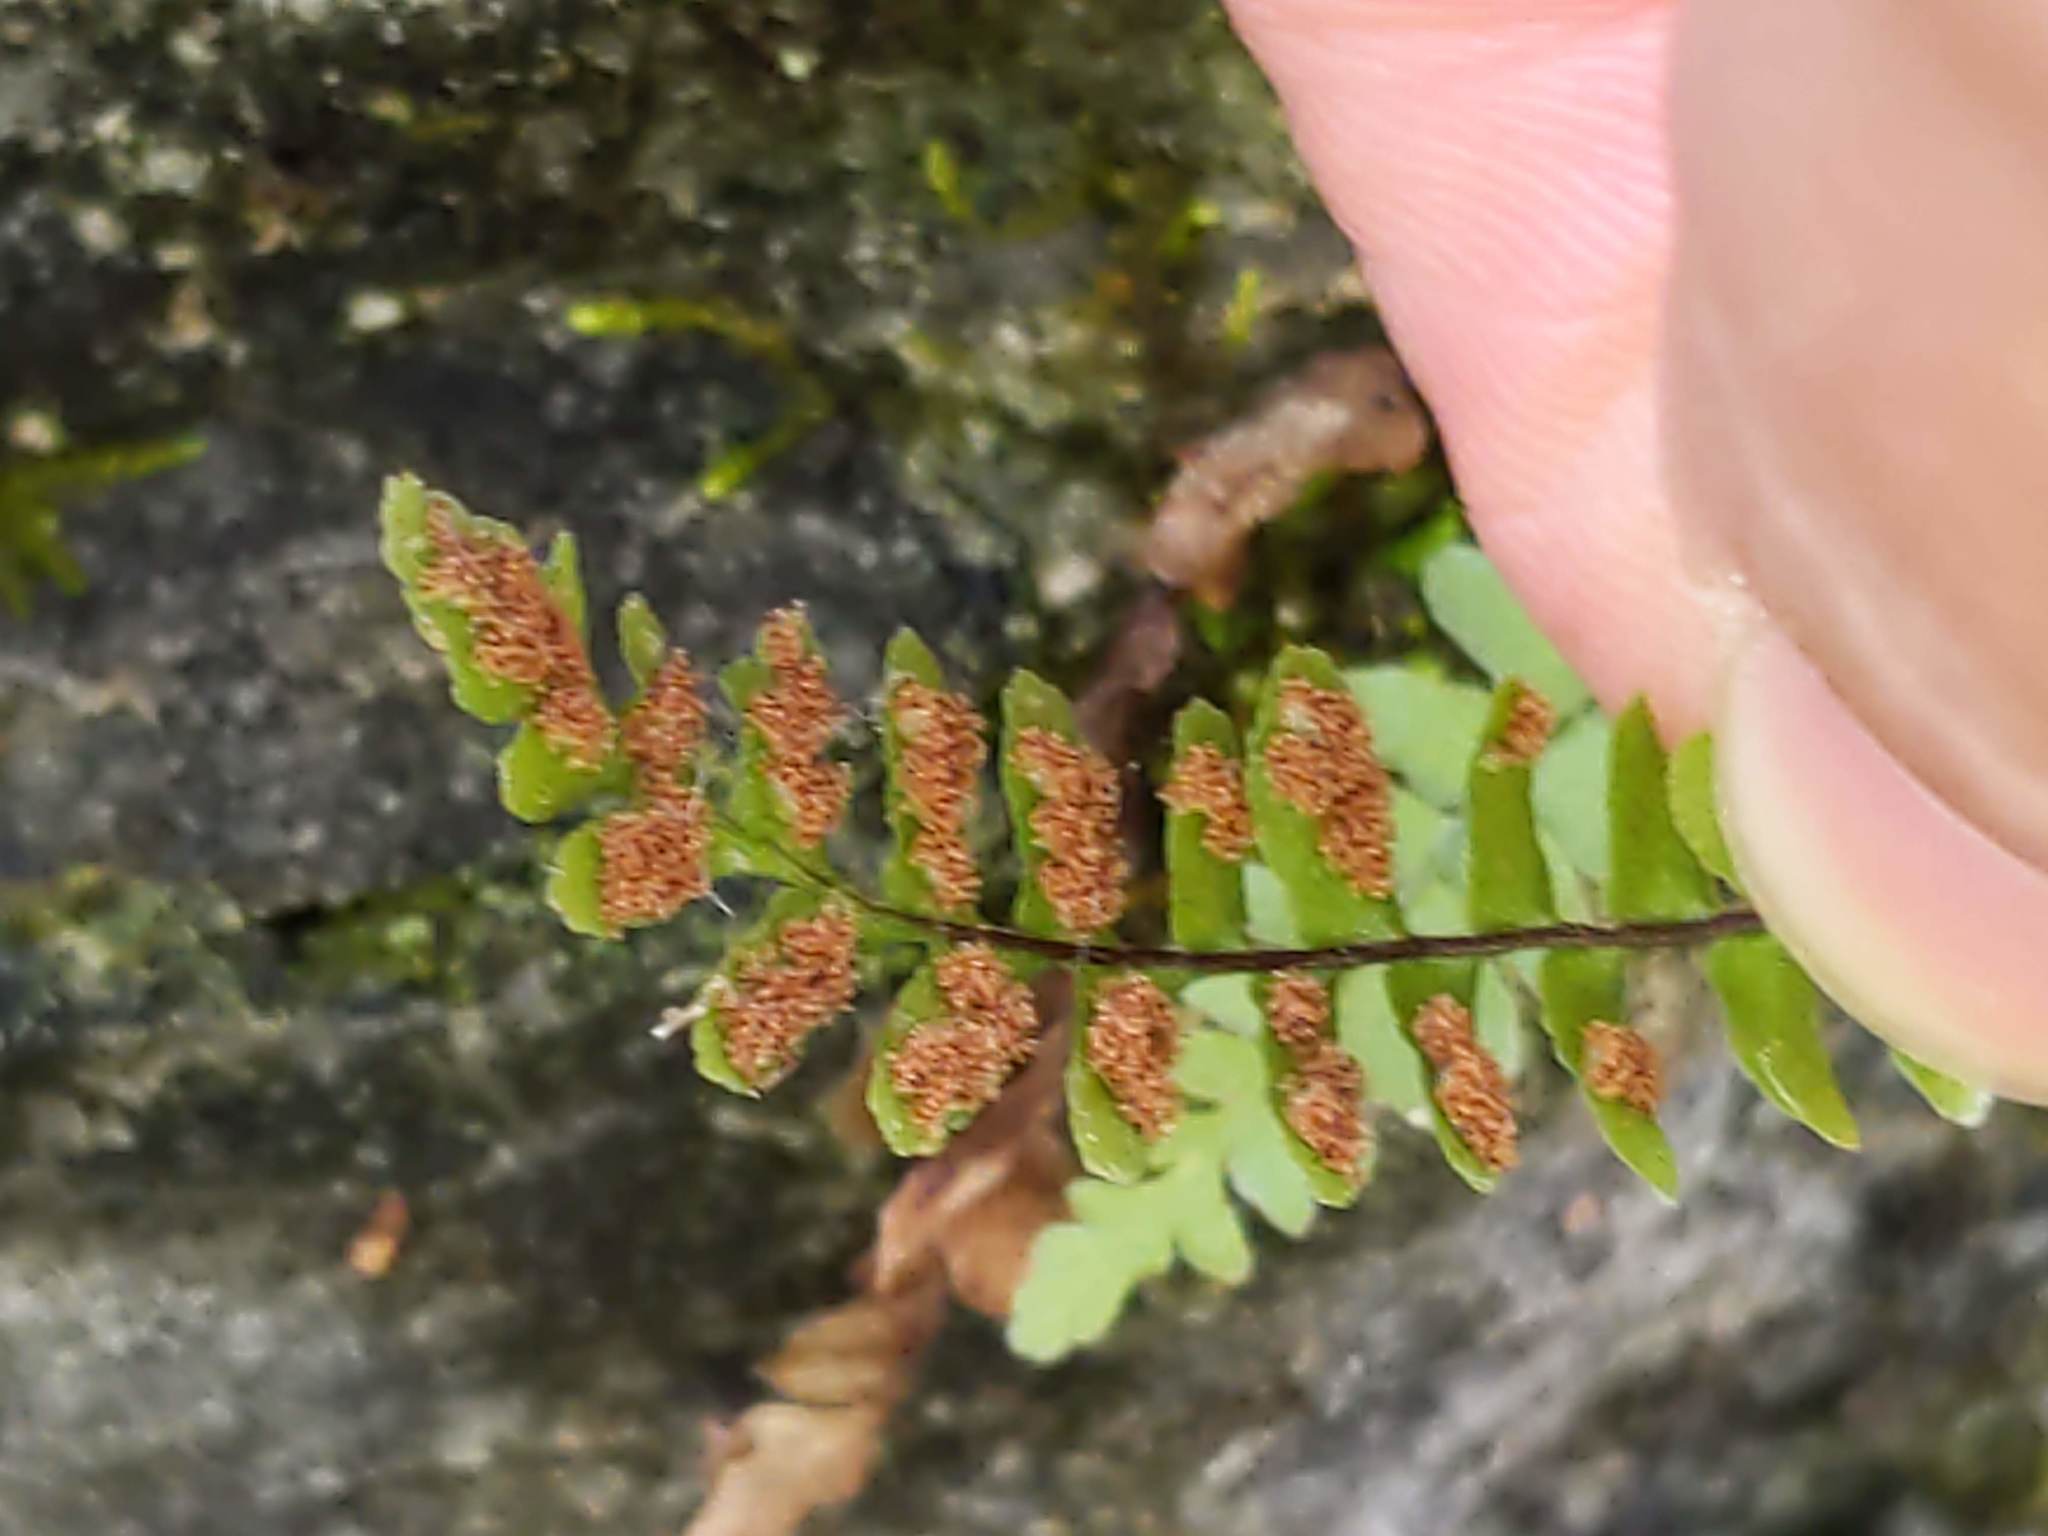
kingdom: Plantae
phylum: Tracheophyta
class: Polypodiopsida
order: Polypodiales
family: Aspleniaceae
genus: Asplenium
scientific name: Asplenium platyneuron
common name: Ebony spleenwort
